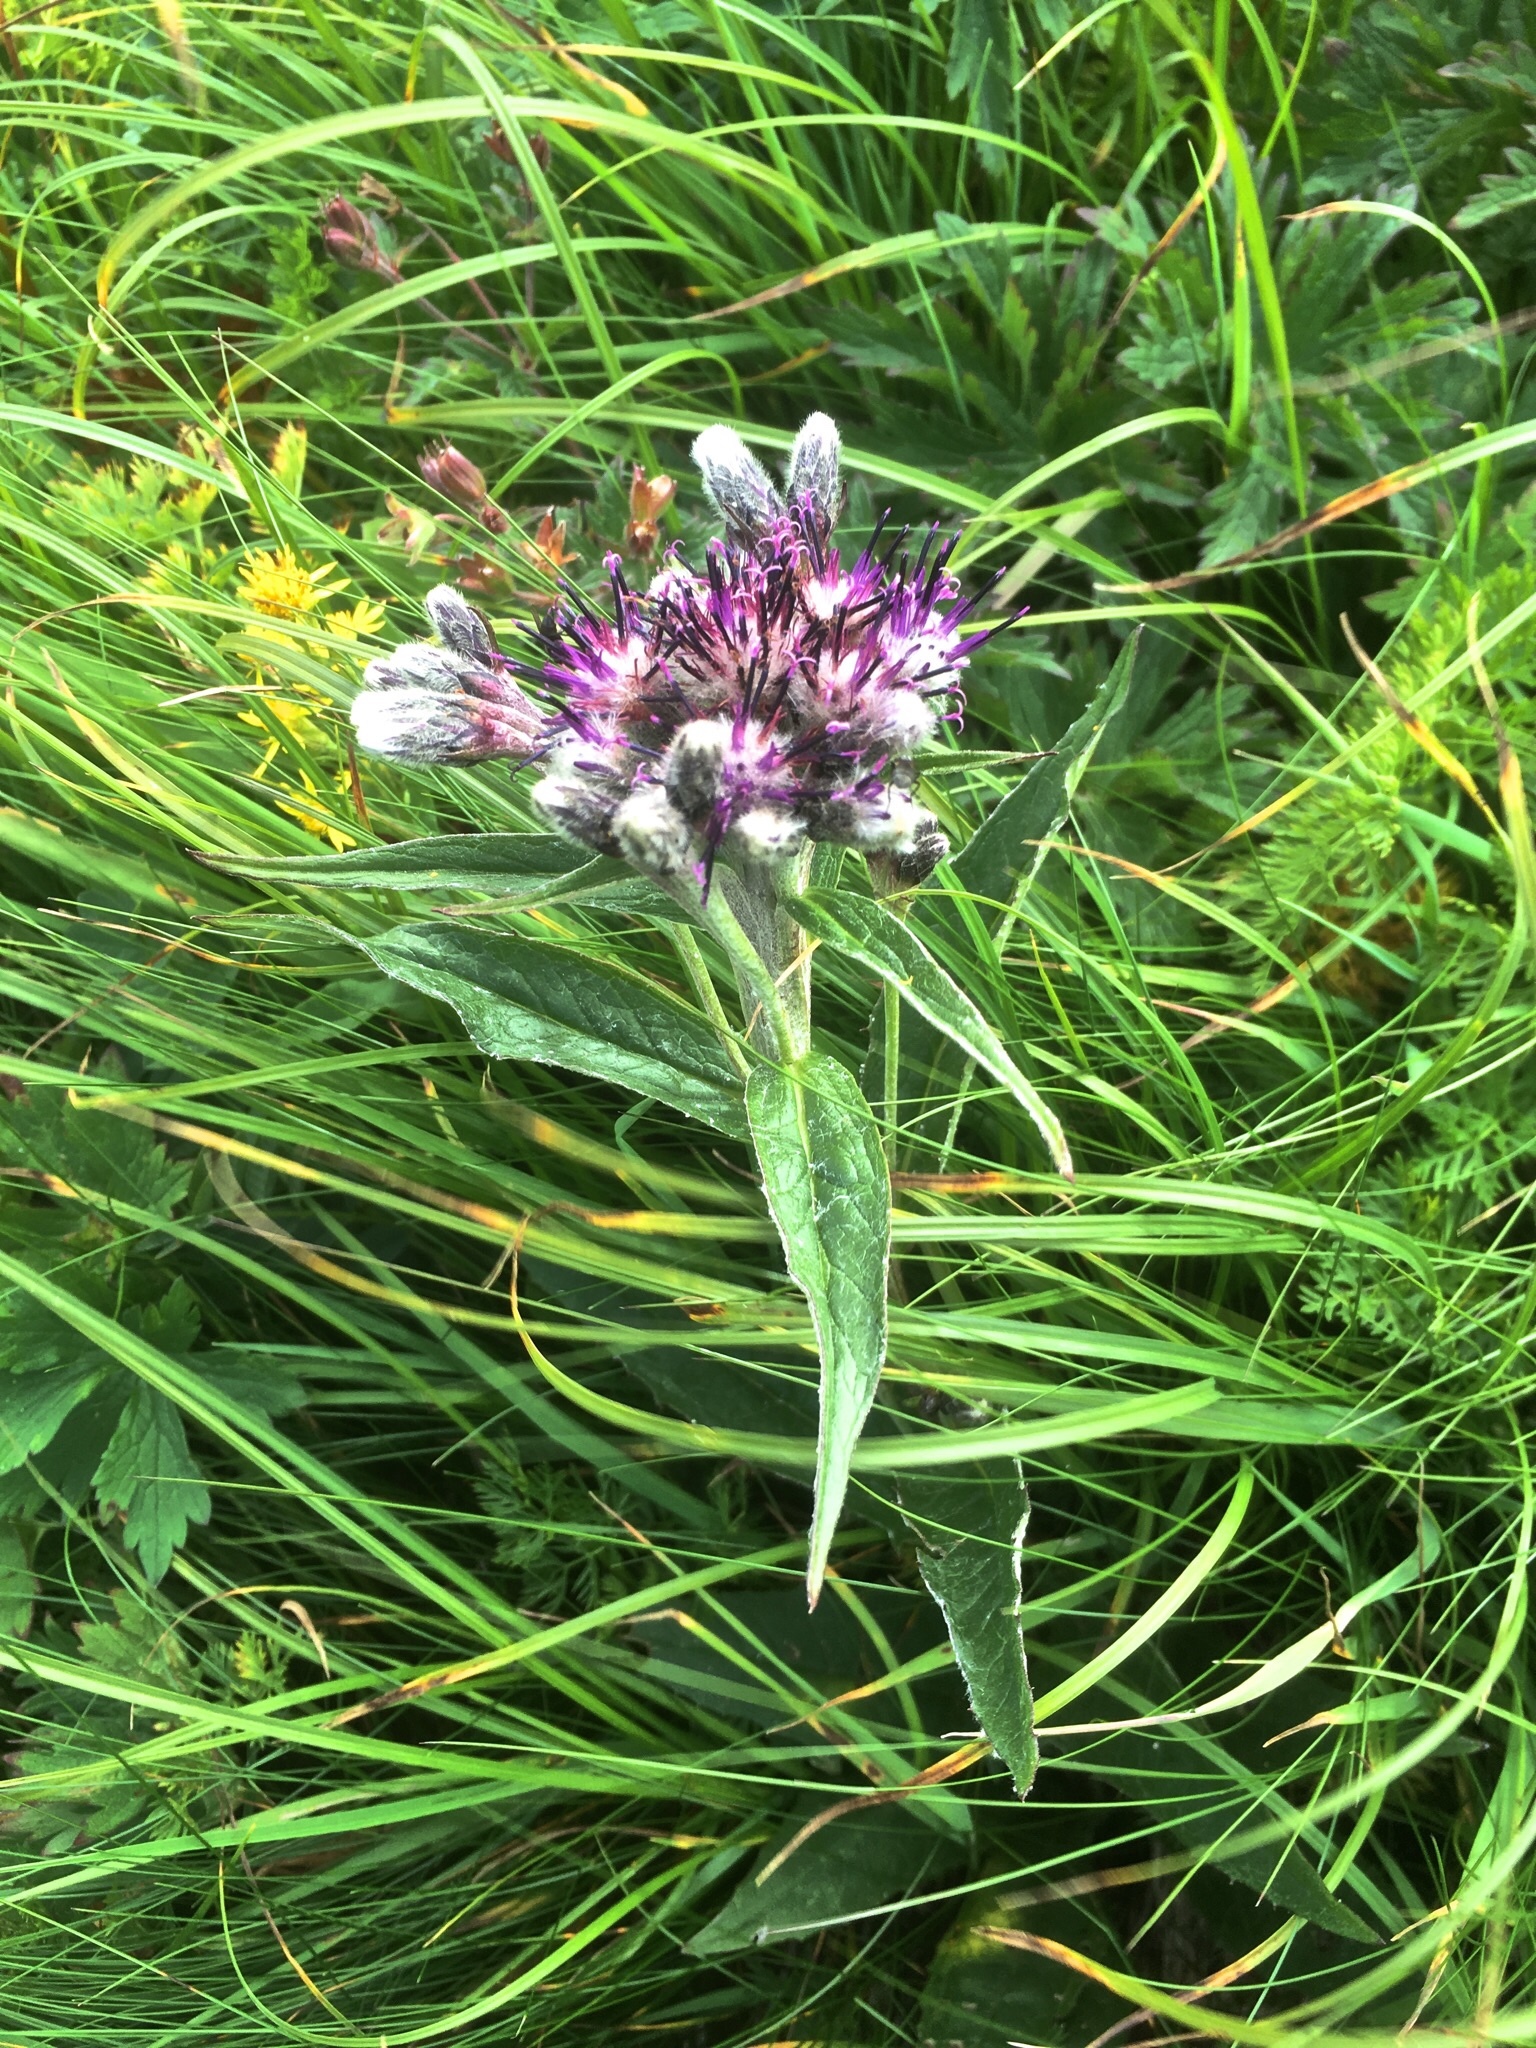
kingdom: Plantae
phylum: Tracheophyta
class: Magnoliopsida
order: Asterales
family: Asteraceae
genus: Saussurea
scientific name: Saussurea alpina
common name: Alpine saw-wort
